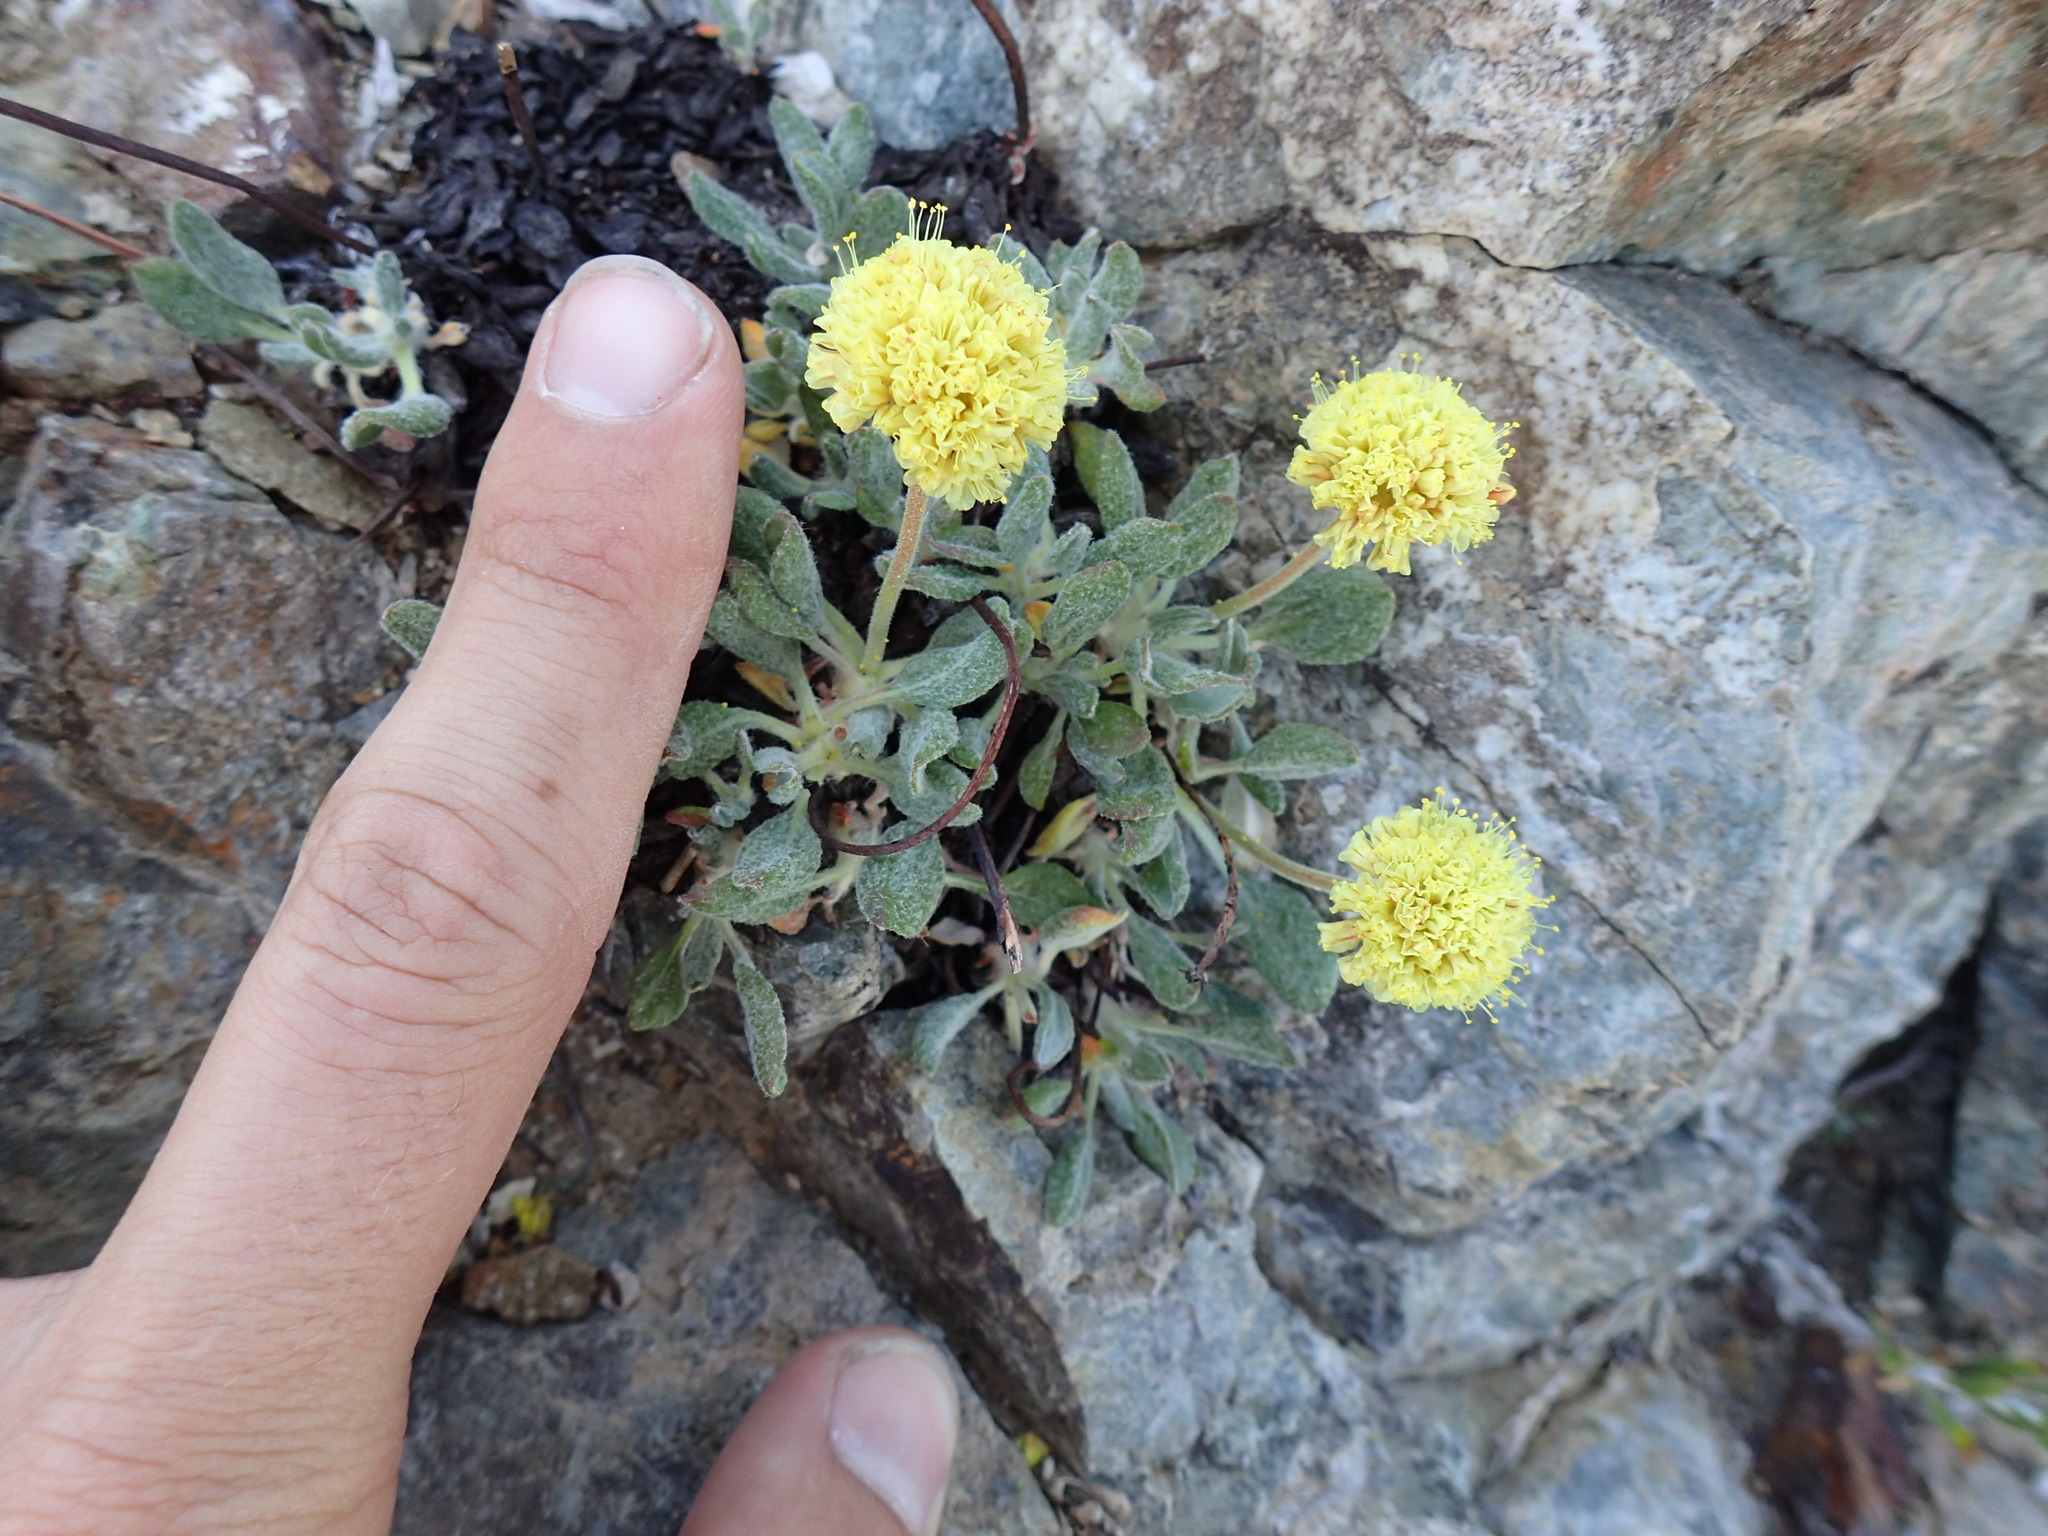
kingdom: Plantae
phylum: Tracheophyta
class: Magnoliopsida
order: Caryophyllales
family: Polygonaceae
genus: Eriogonum
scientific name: Eriogonum rosense
